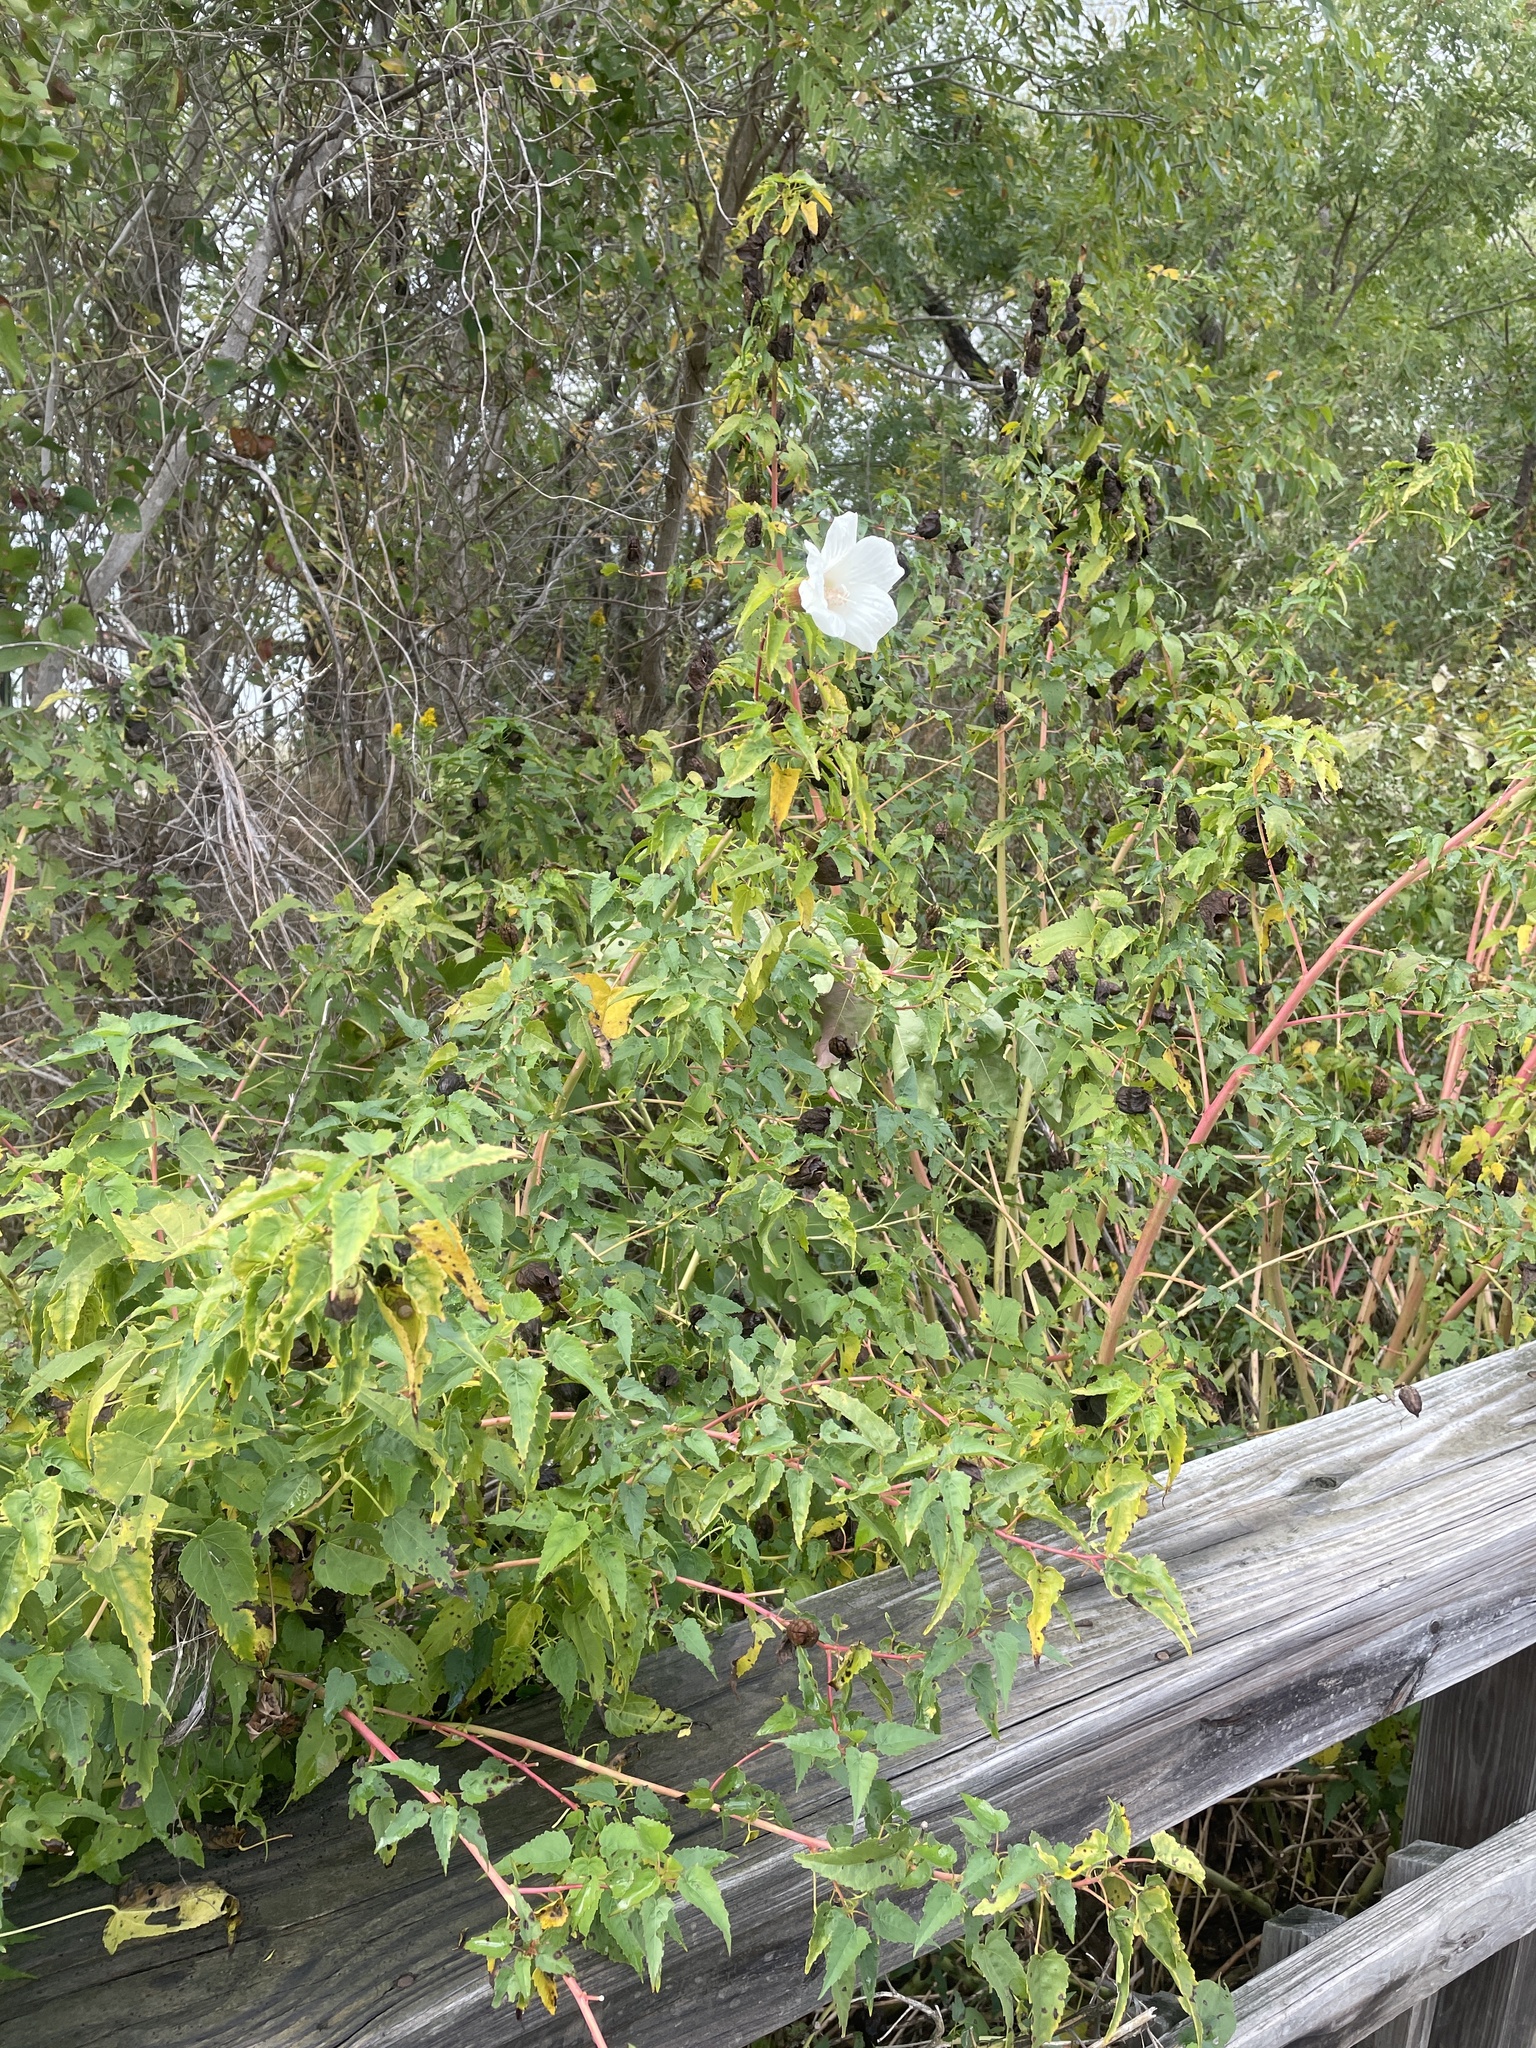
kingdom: Plantae
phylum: Tracheophyta
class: Magnoliopsida
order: Malvales
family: Malvaceae
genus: Hibiscus
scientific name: Hibiscus laevis
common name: Scarlet rose-mallow
